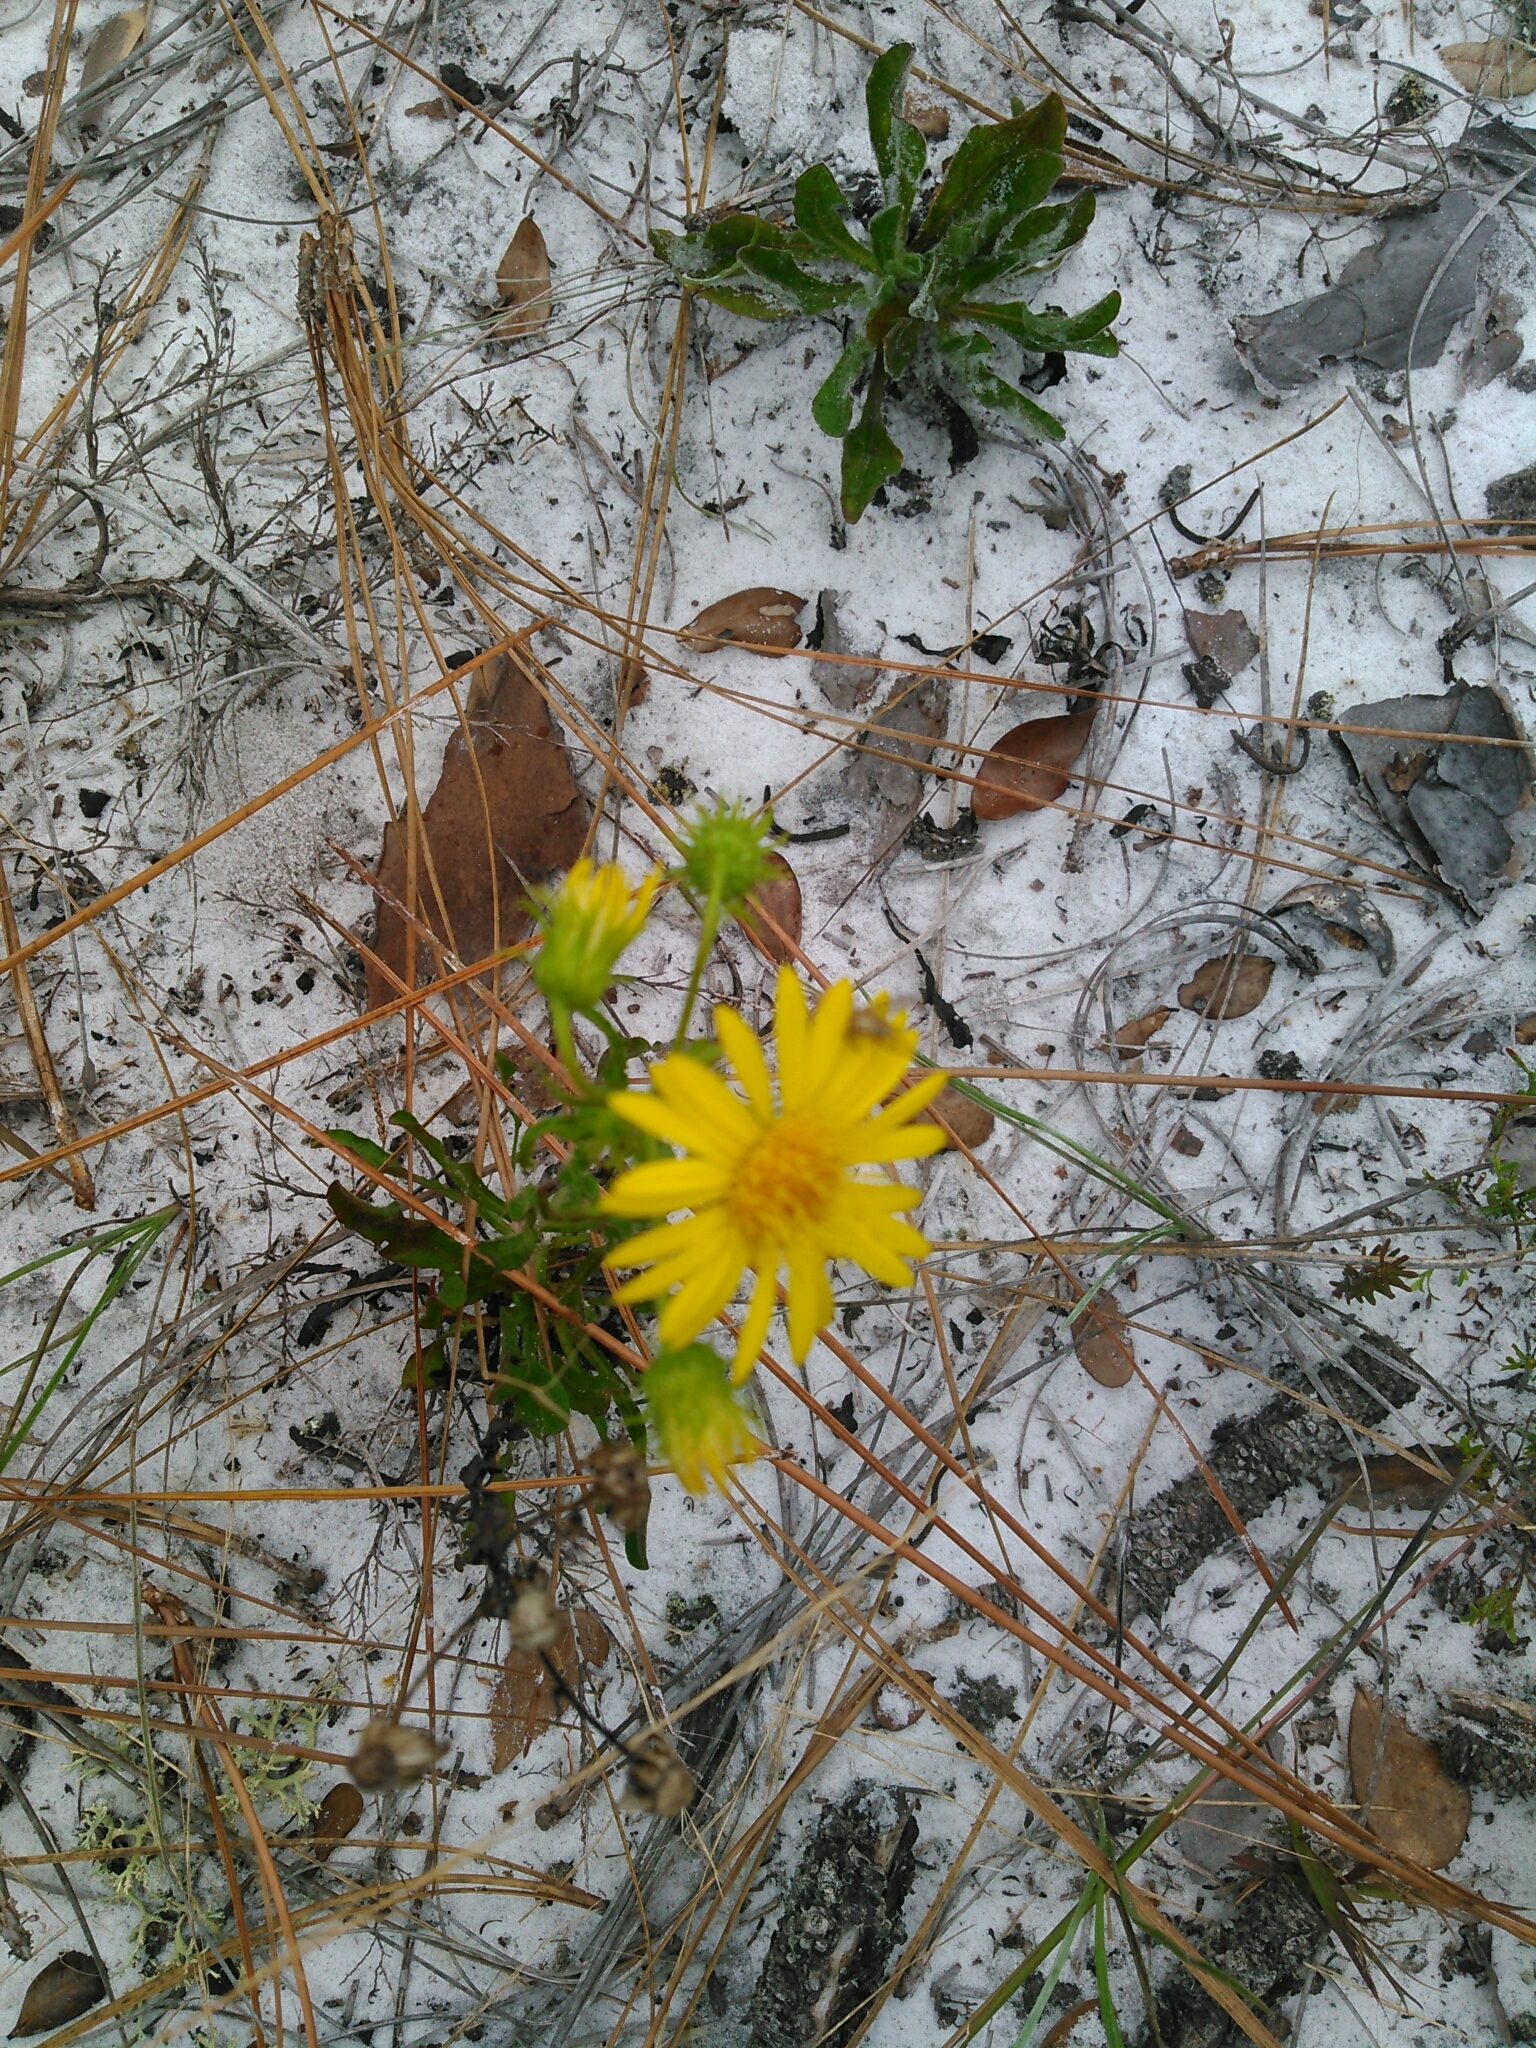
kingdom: Plantae
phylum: Tracheophyta
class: Magnoliopsida
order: Asterales
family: Asteraceae
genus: Chrysopsis
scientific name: Chrysopsis subulata
